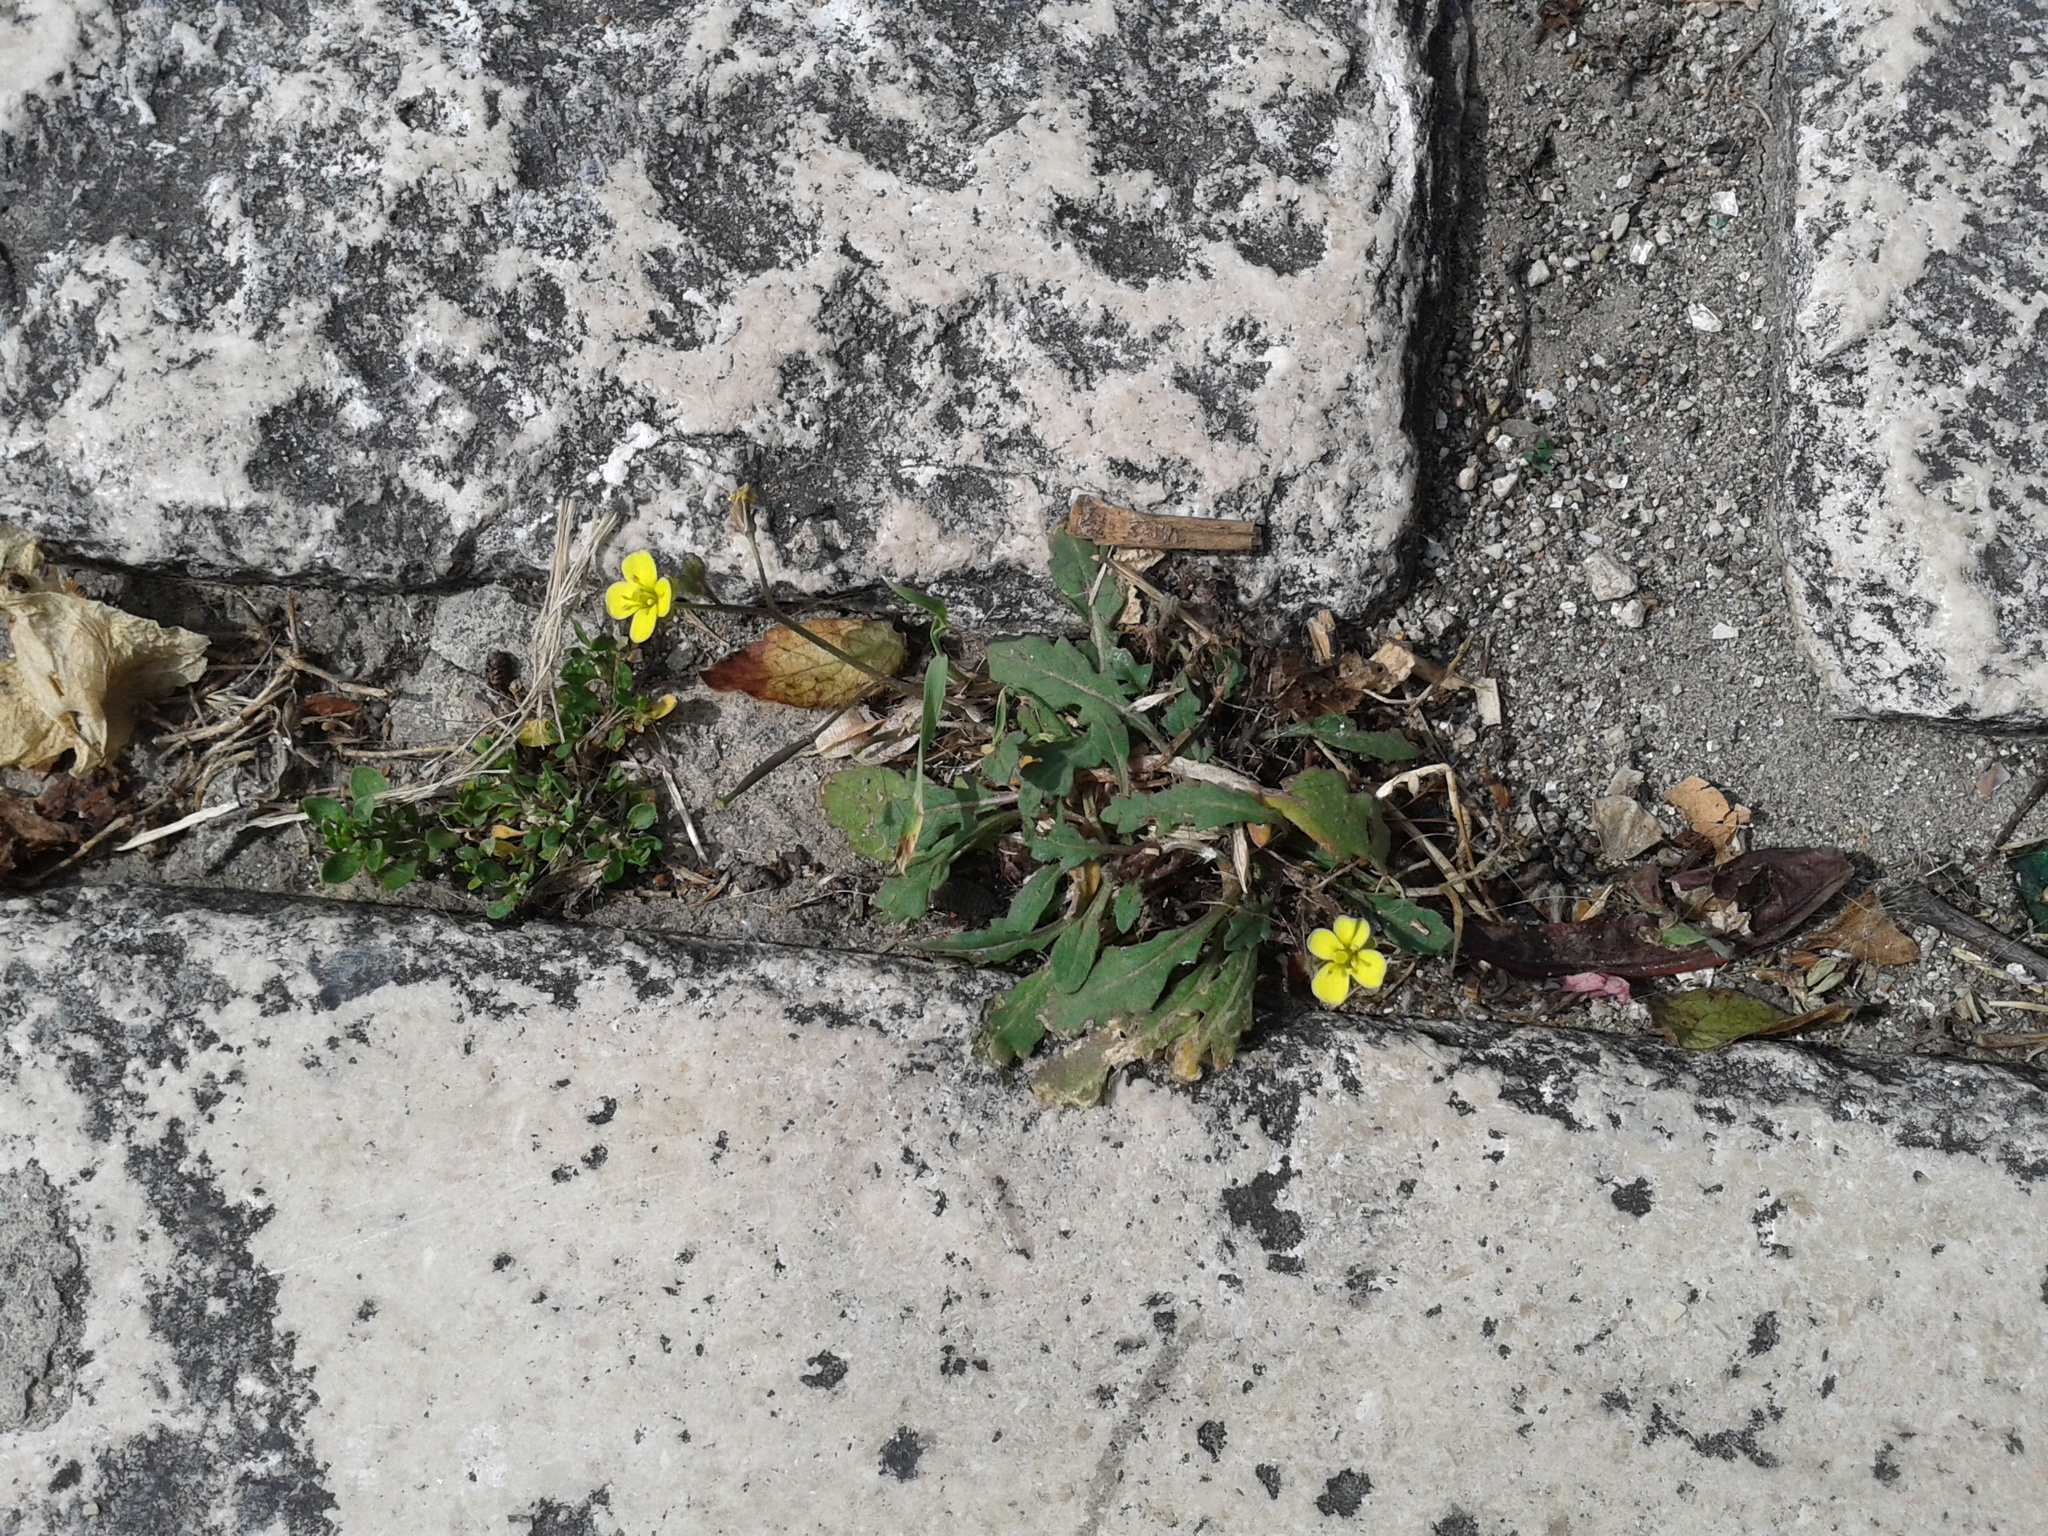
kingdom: Plantae
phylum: Tracheophyta
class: Magnoliopsida
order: Brassicales
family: Brassicaceae
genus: Diplotaxis
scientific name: Diplotaxis muralis
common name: Annual wall-rocket
